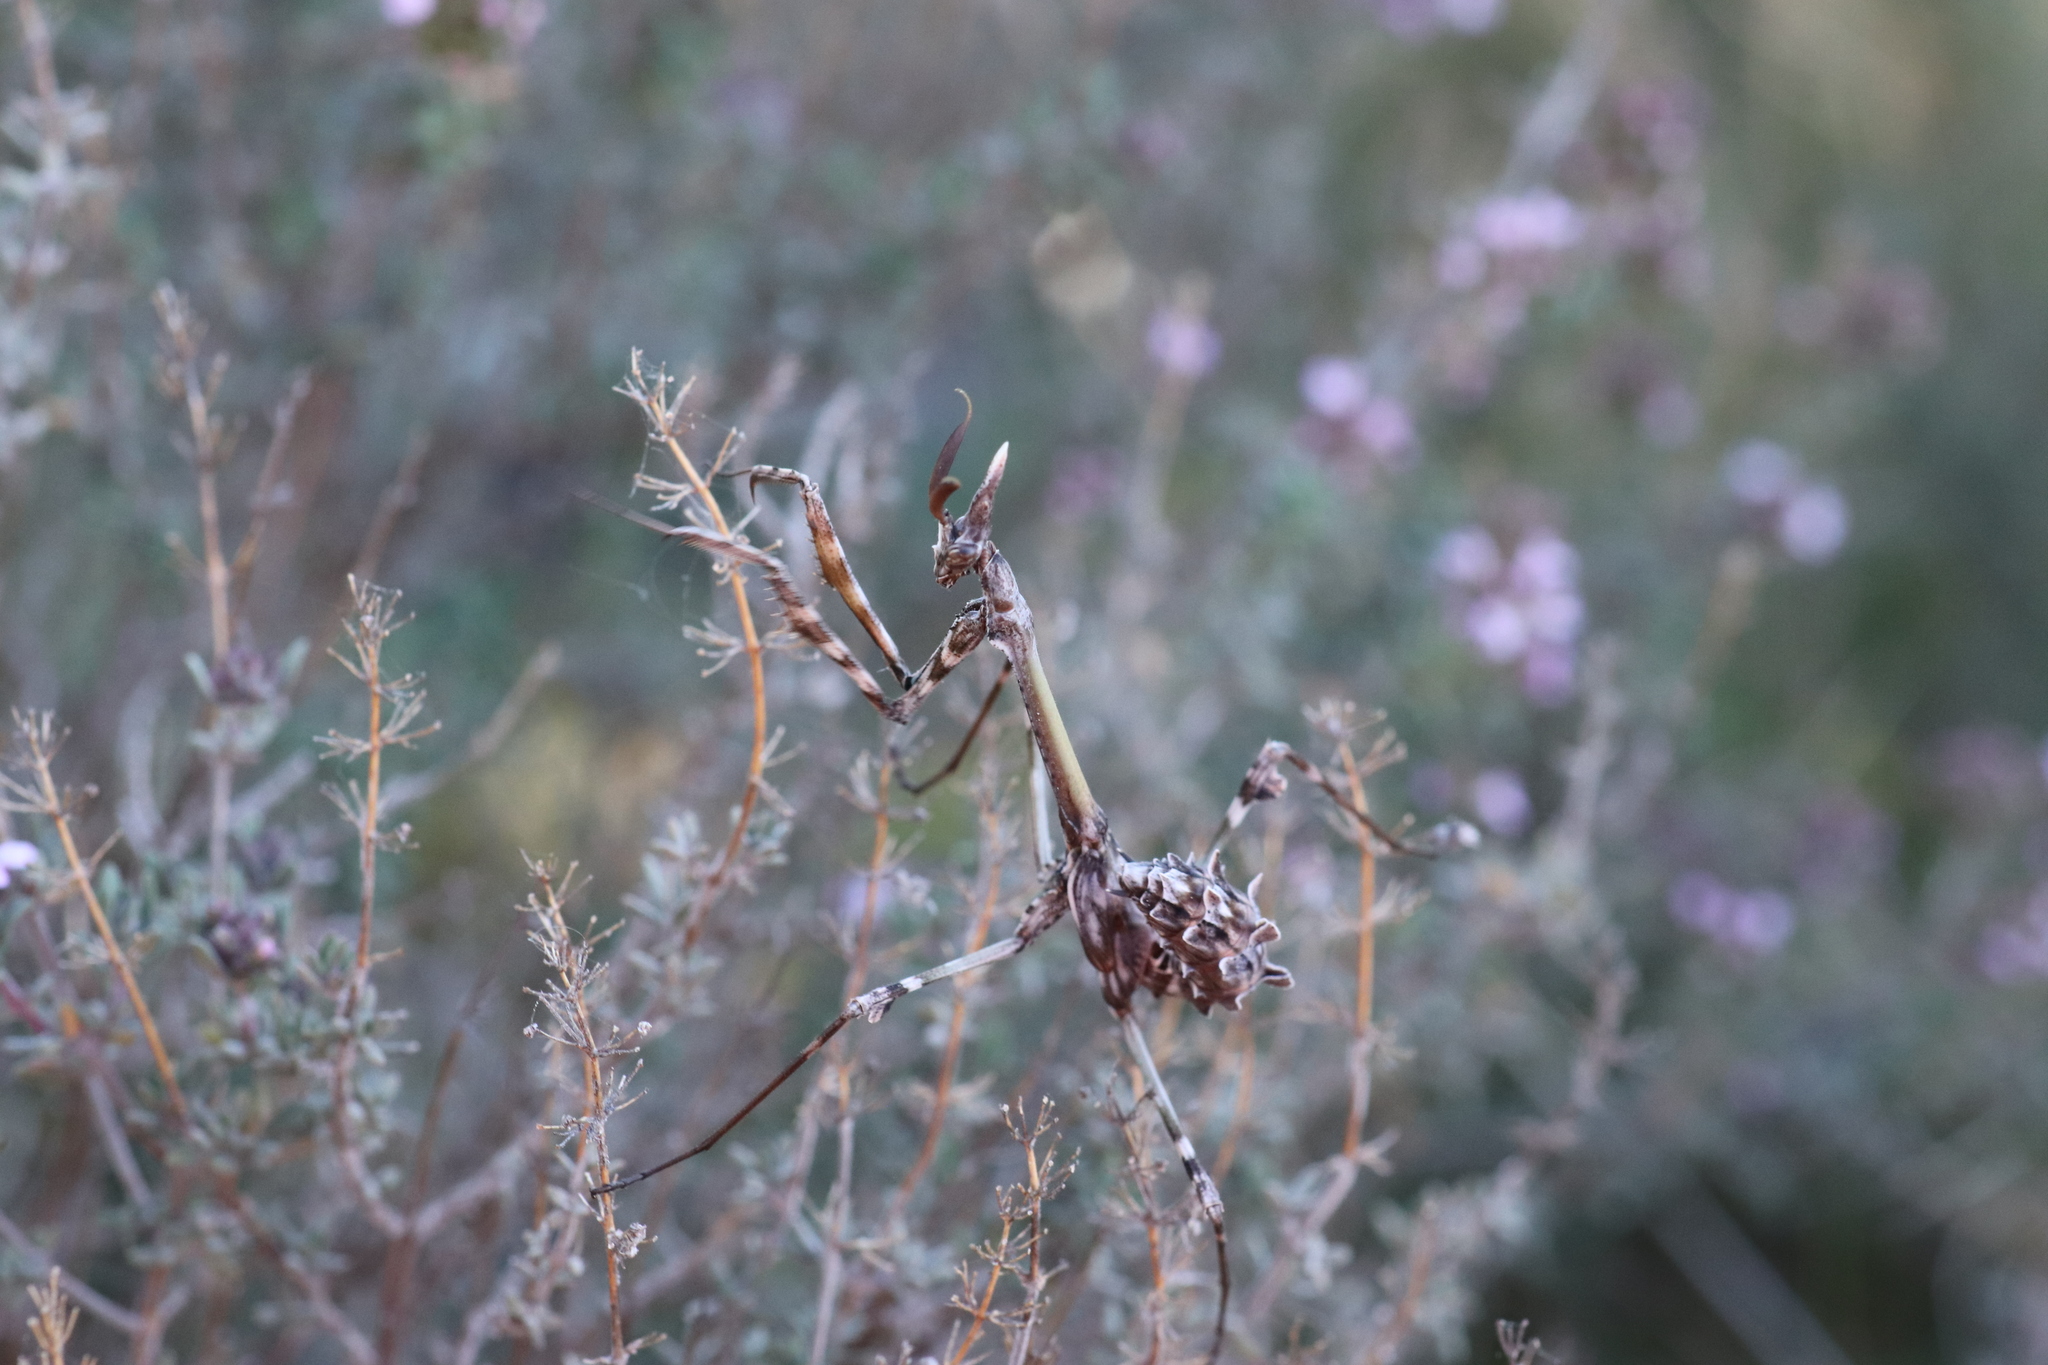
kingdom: Animalia
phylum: Arthropoda
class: Insecta
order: Mantodea
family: Empusidae
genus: Empusa
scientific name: Empusa pennata
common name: Conehead mantis
